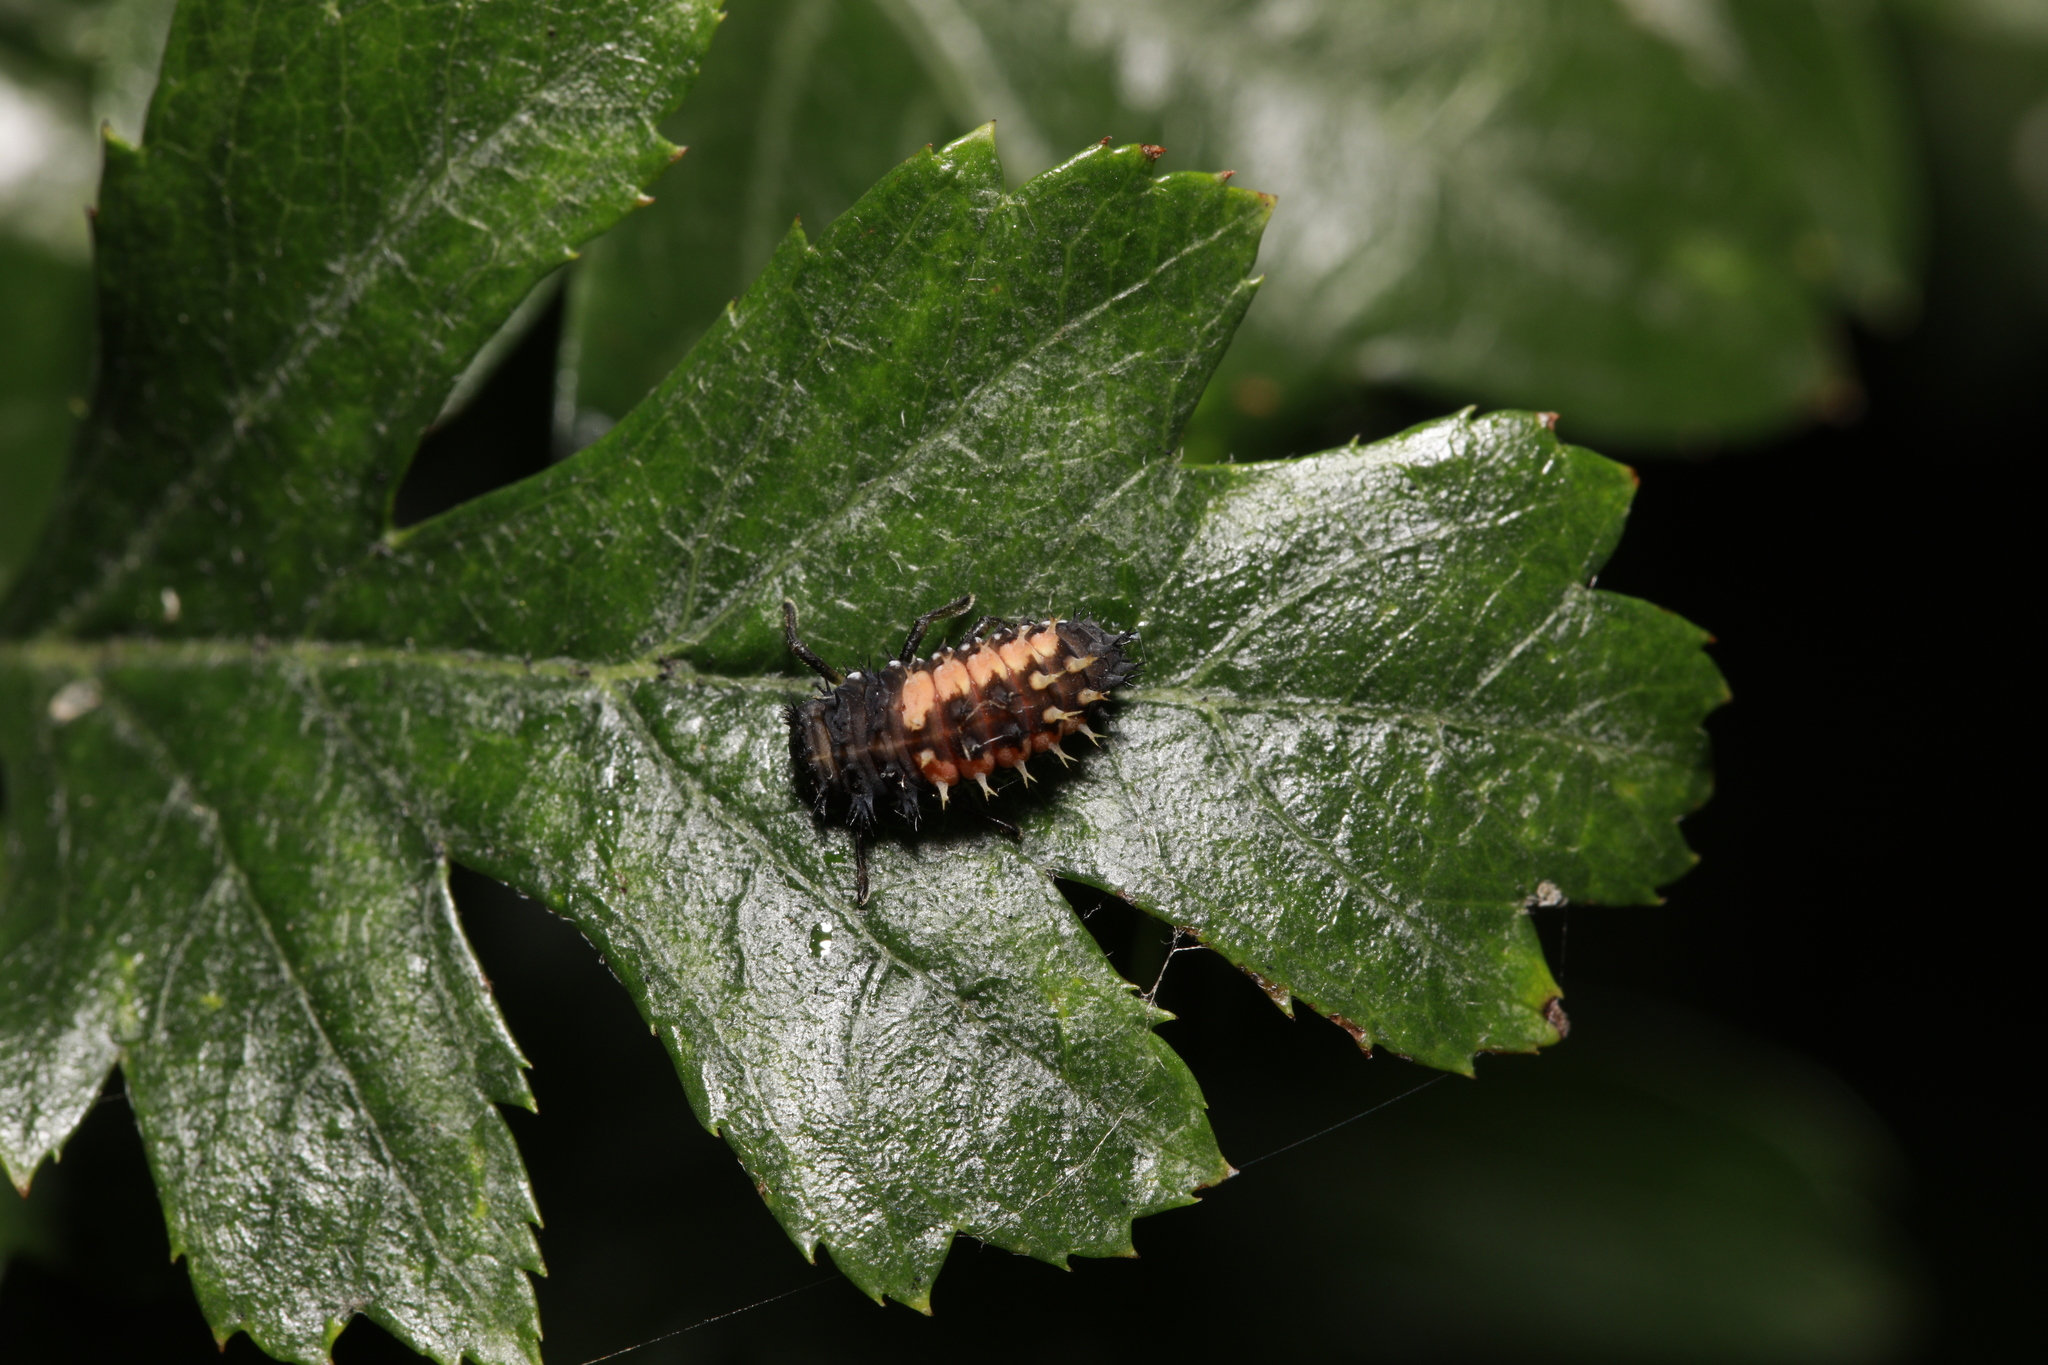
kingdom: Animalia
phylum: Arthropoda
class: Insecta
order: Coleoptera
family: Coccinellidae
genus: Harmonia
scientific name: Harmonia axyridis
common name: Harlequin ladybird
